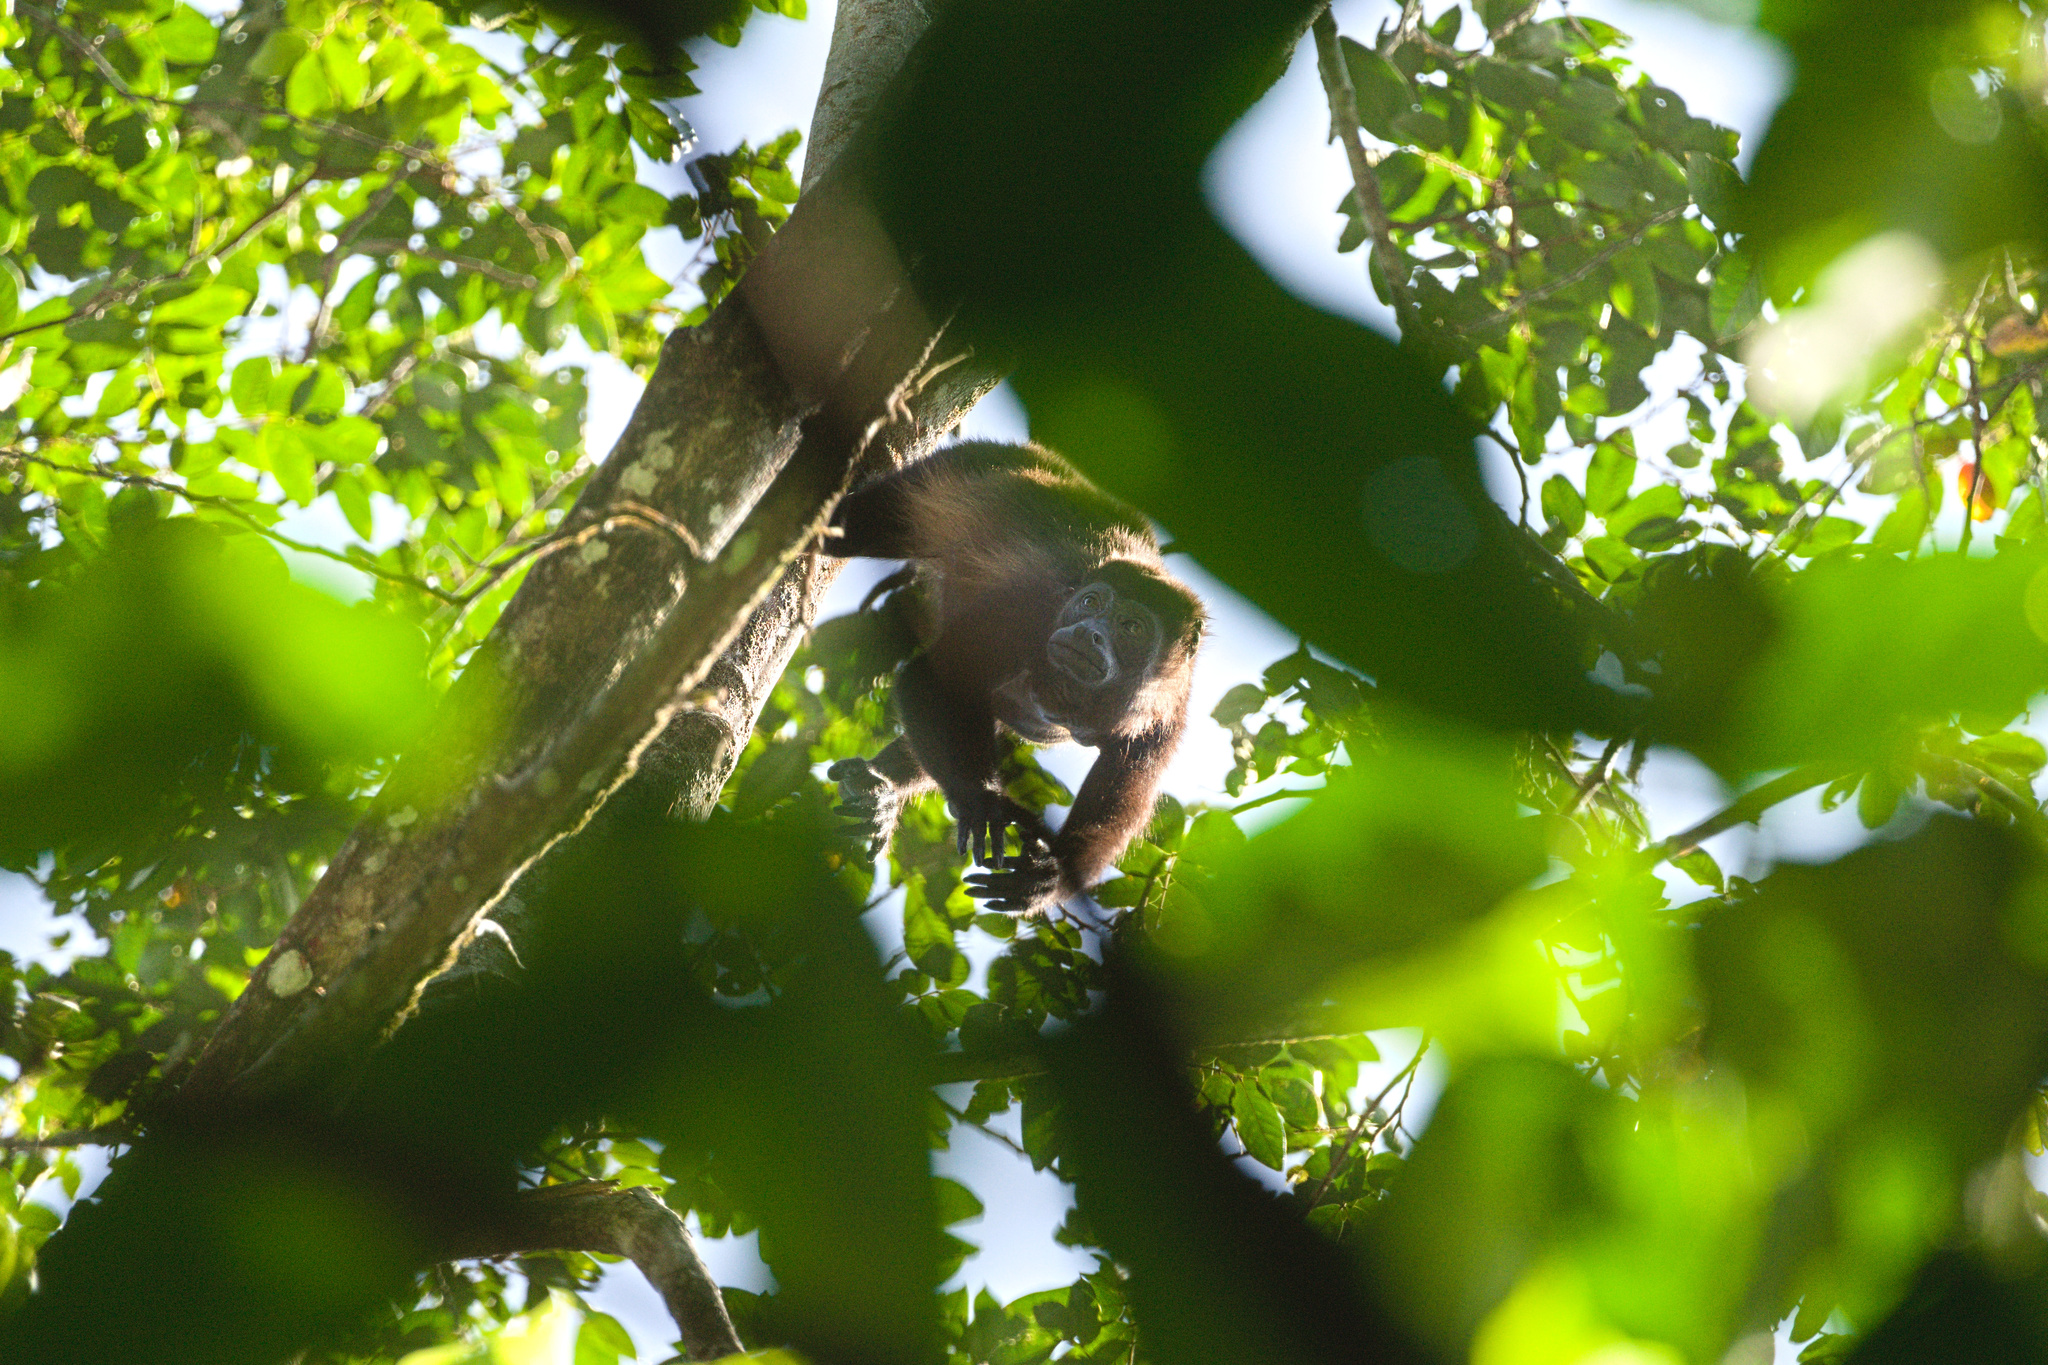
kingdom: Animalia
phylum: Chordata
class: Mammalia
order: Primates
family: Atelidae
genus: Alouatta
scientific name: Alouatta palliata
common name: Mantled howler
